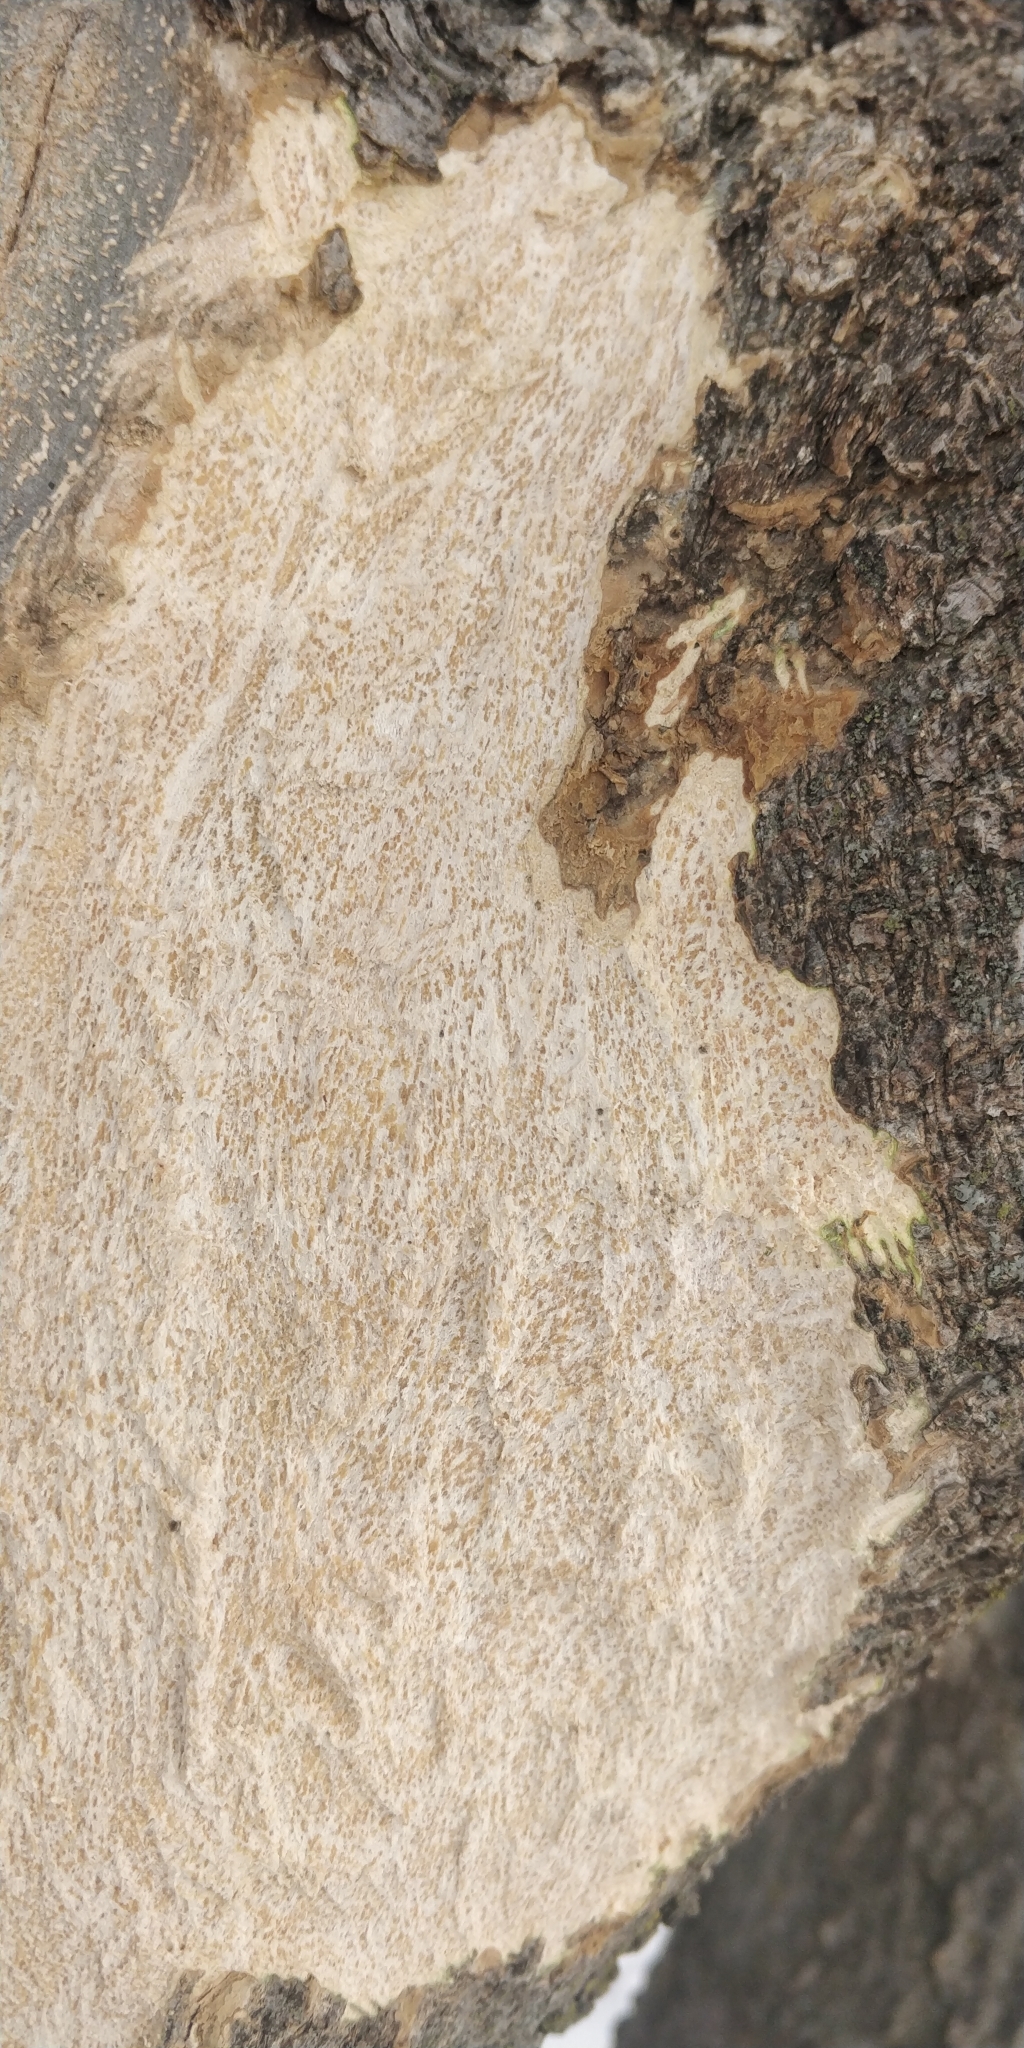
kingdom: Animalia
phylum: Chordata
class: Mammalia
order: Rodentia
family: Sciuridae
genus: Sciurus
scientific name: Sciurus niger
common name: Fox squirrel
